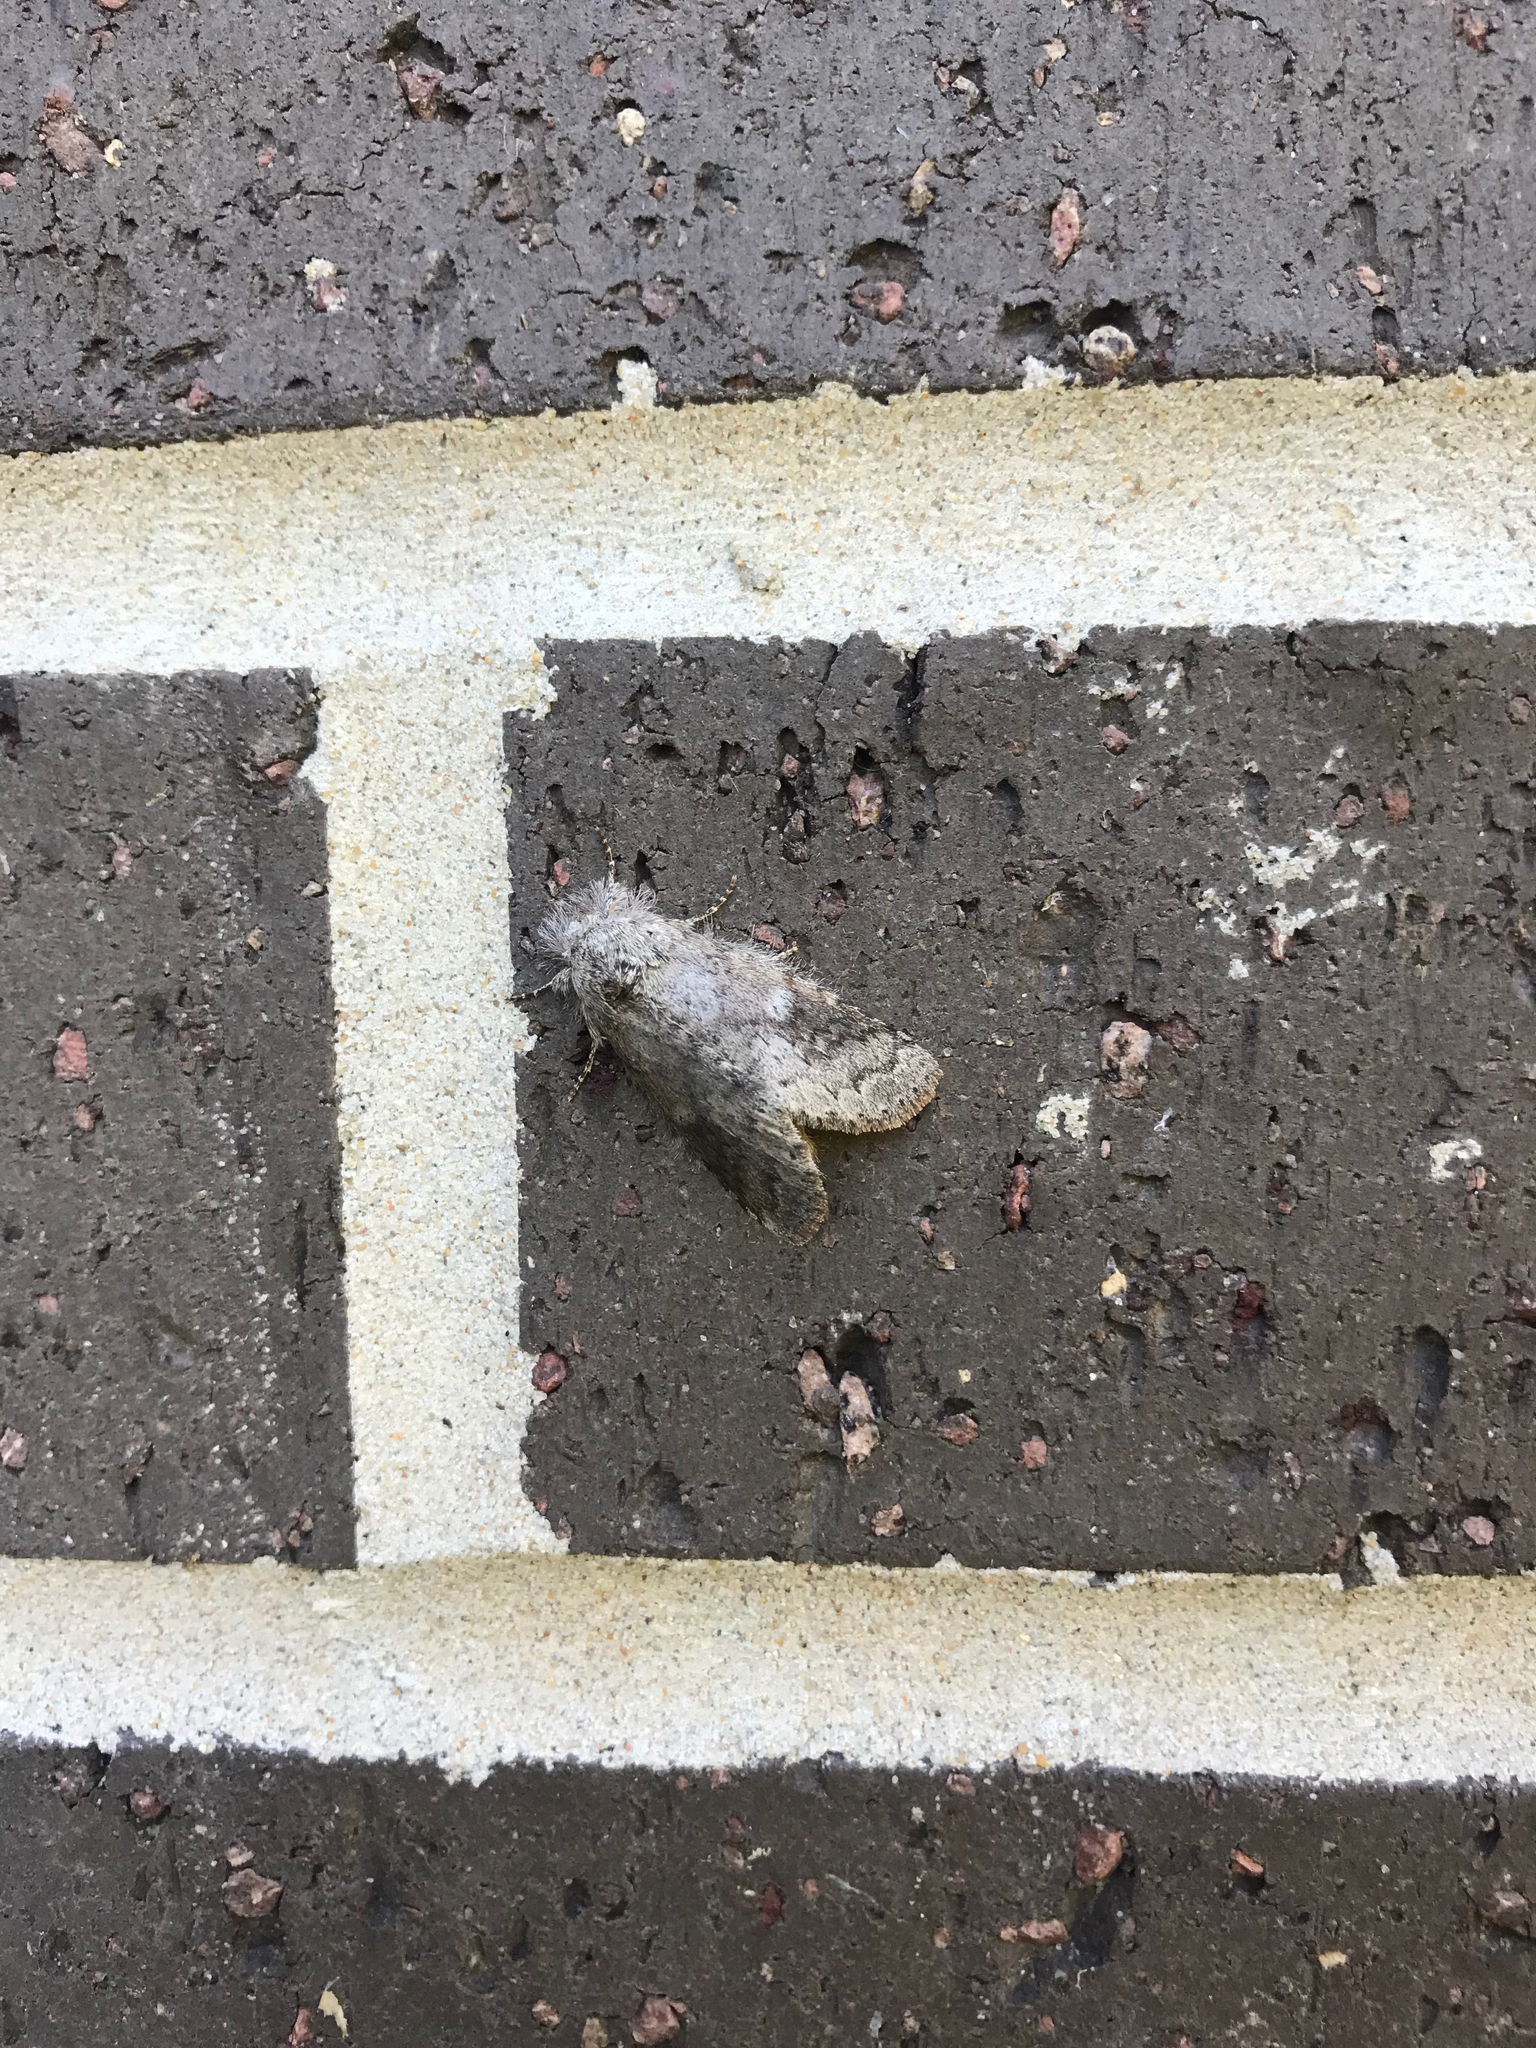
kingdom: Animalia
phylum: Arthropoda
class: Insecta
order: Lepidoptera
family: Notodontidae
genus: Lochmaeus
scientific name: Lochmaeus manteo
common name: Variable oakleaf caterpillar moth
